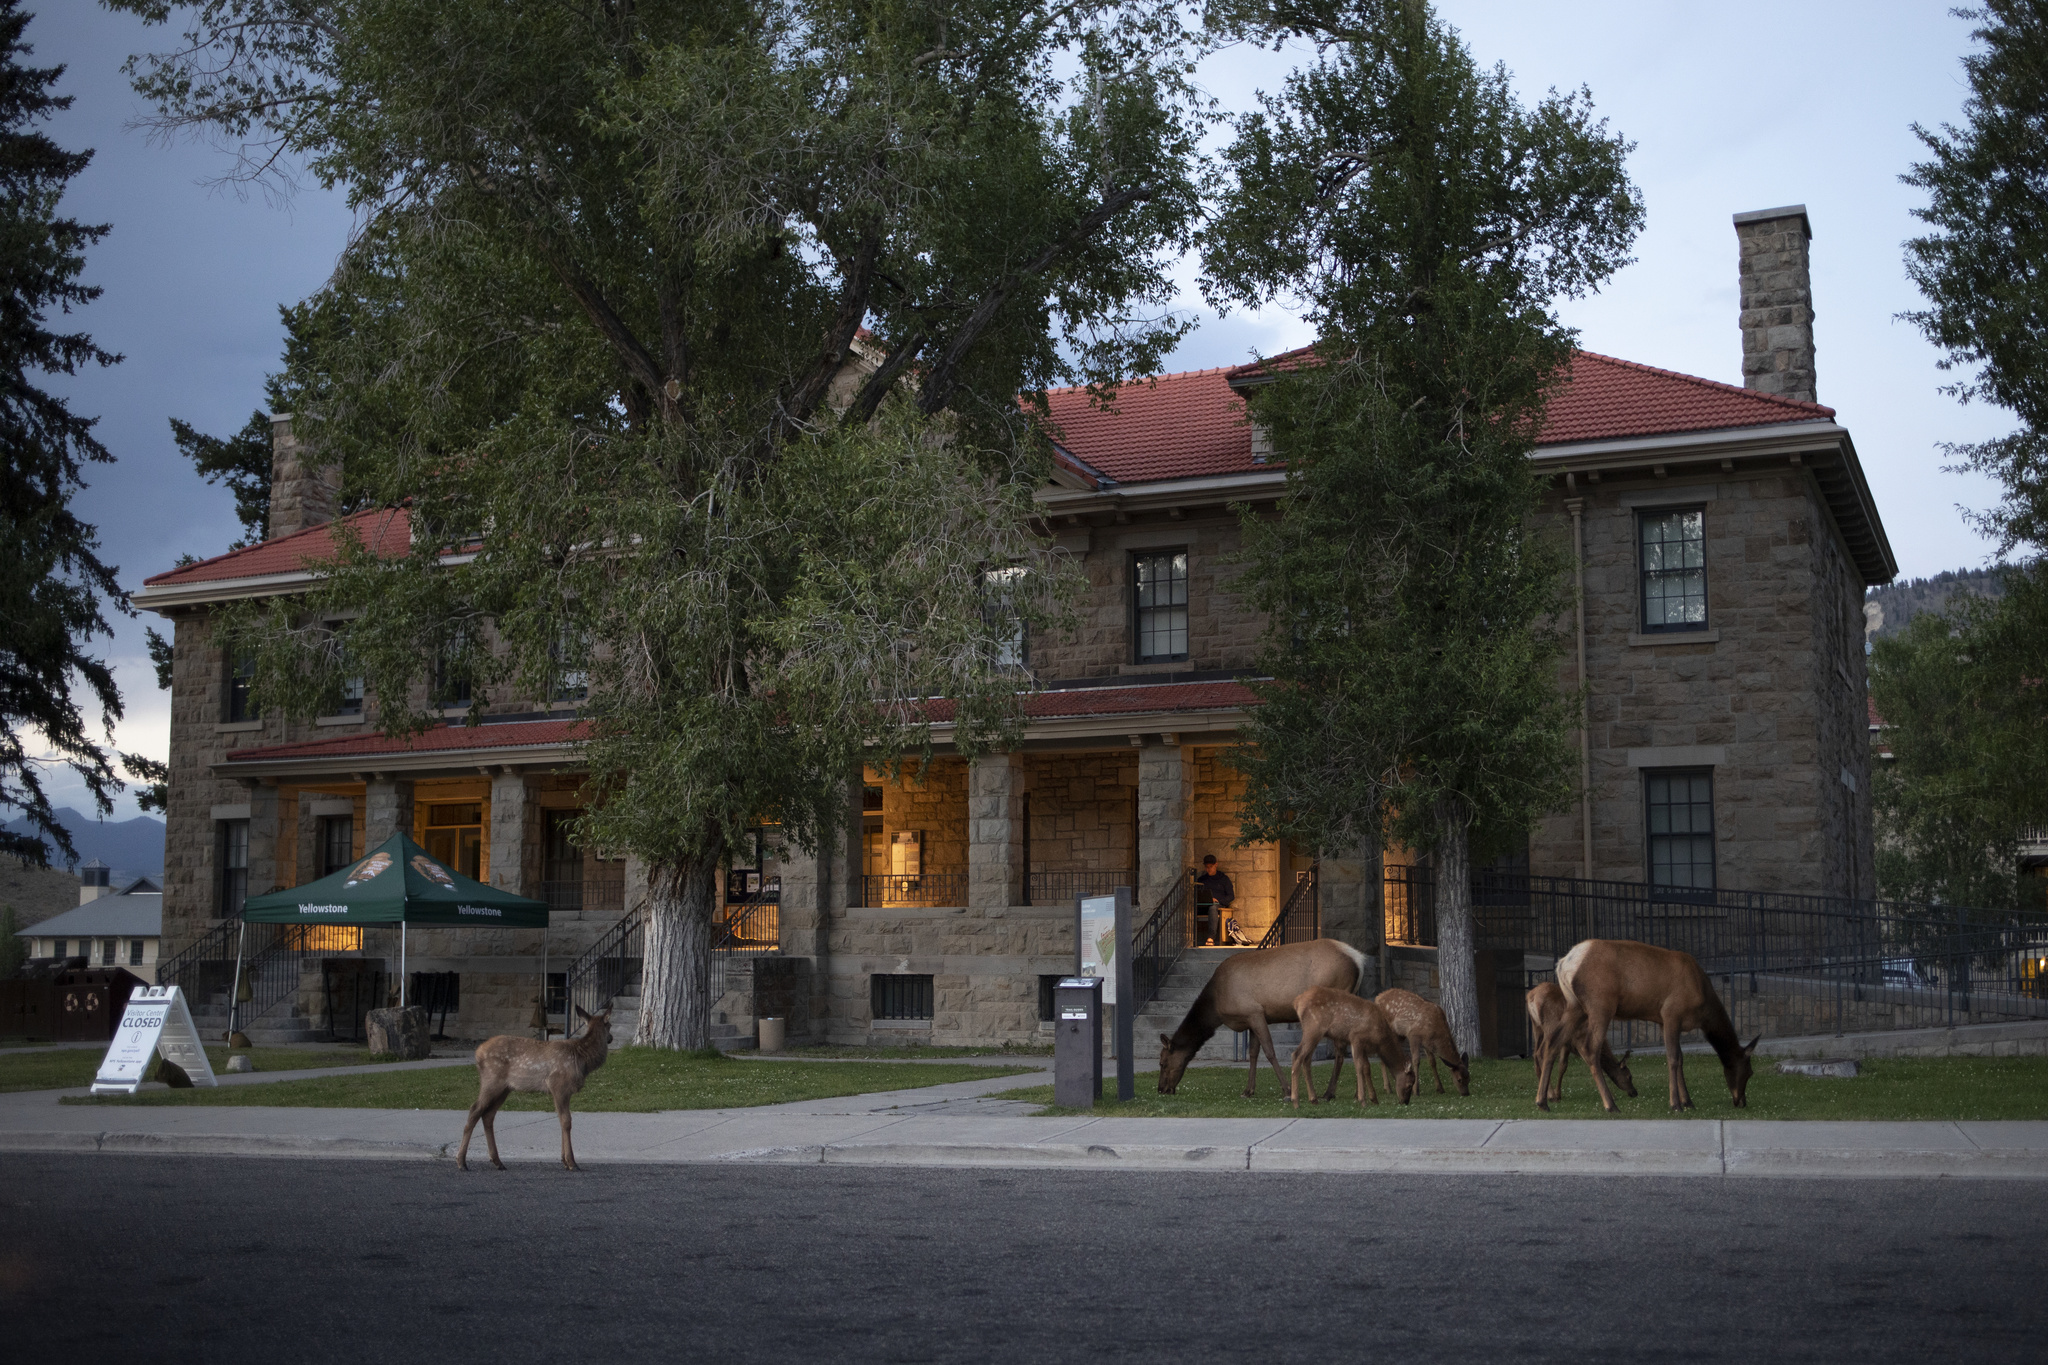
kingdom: Animalia
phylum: Chordata
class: Mammalia
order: Artiodactyla
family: Cervidae
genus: Cervus
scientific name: Cervus elaphus
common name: Red deer
